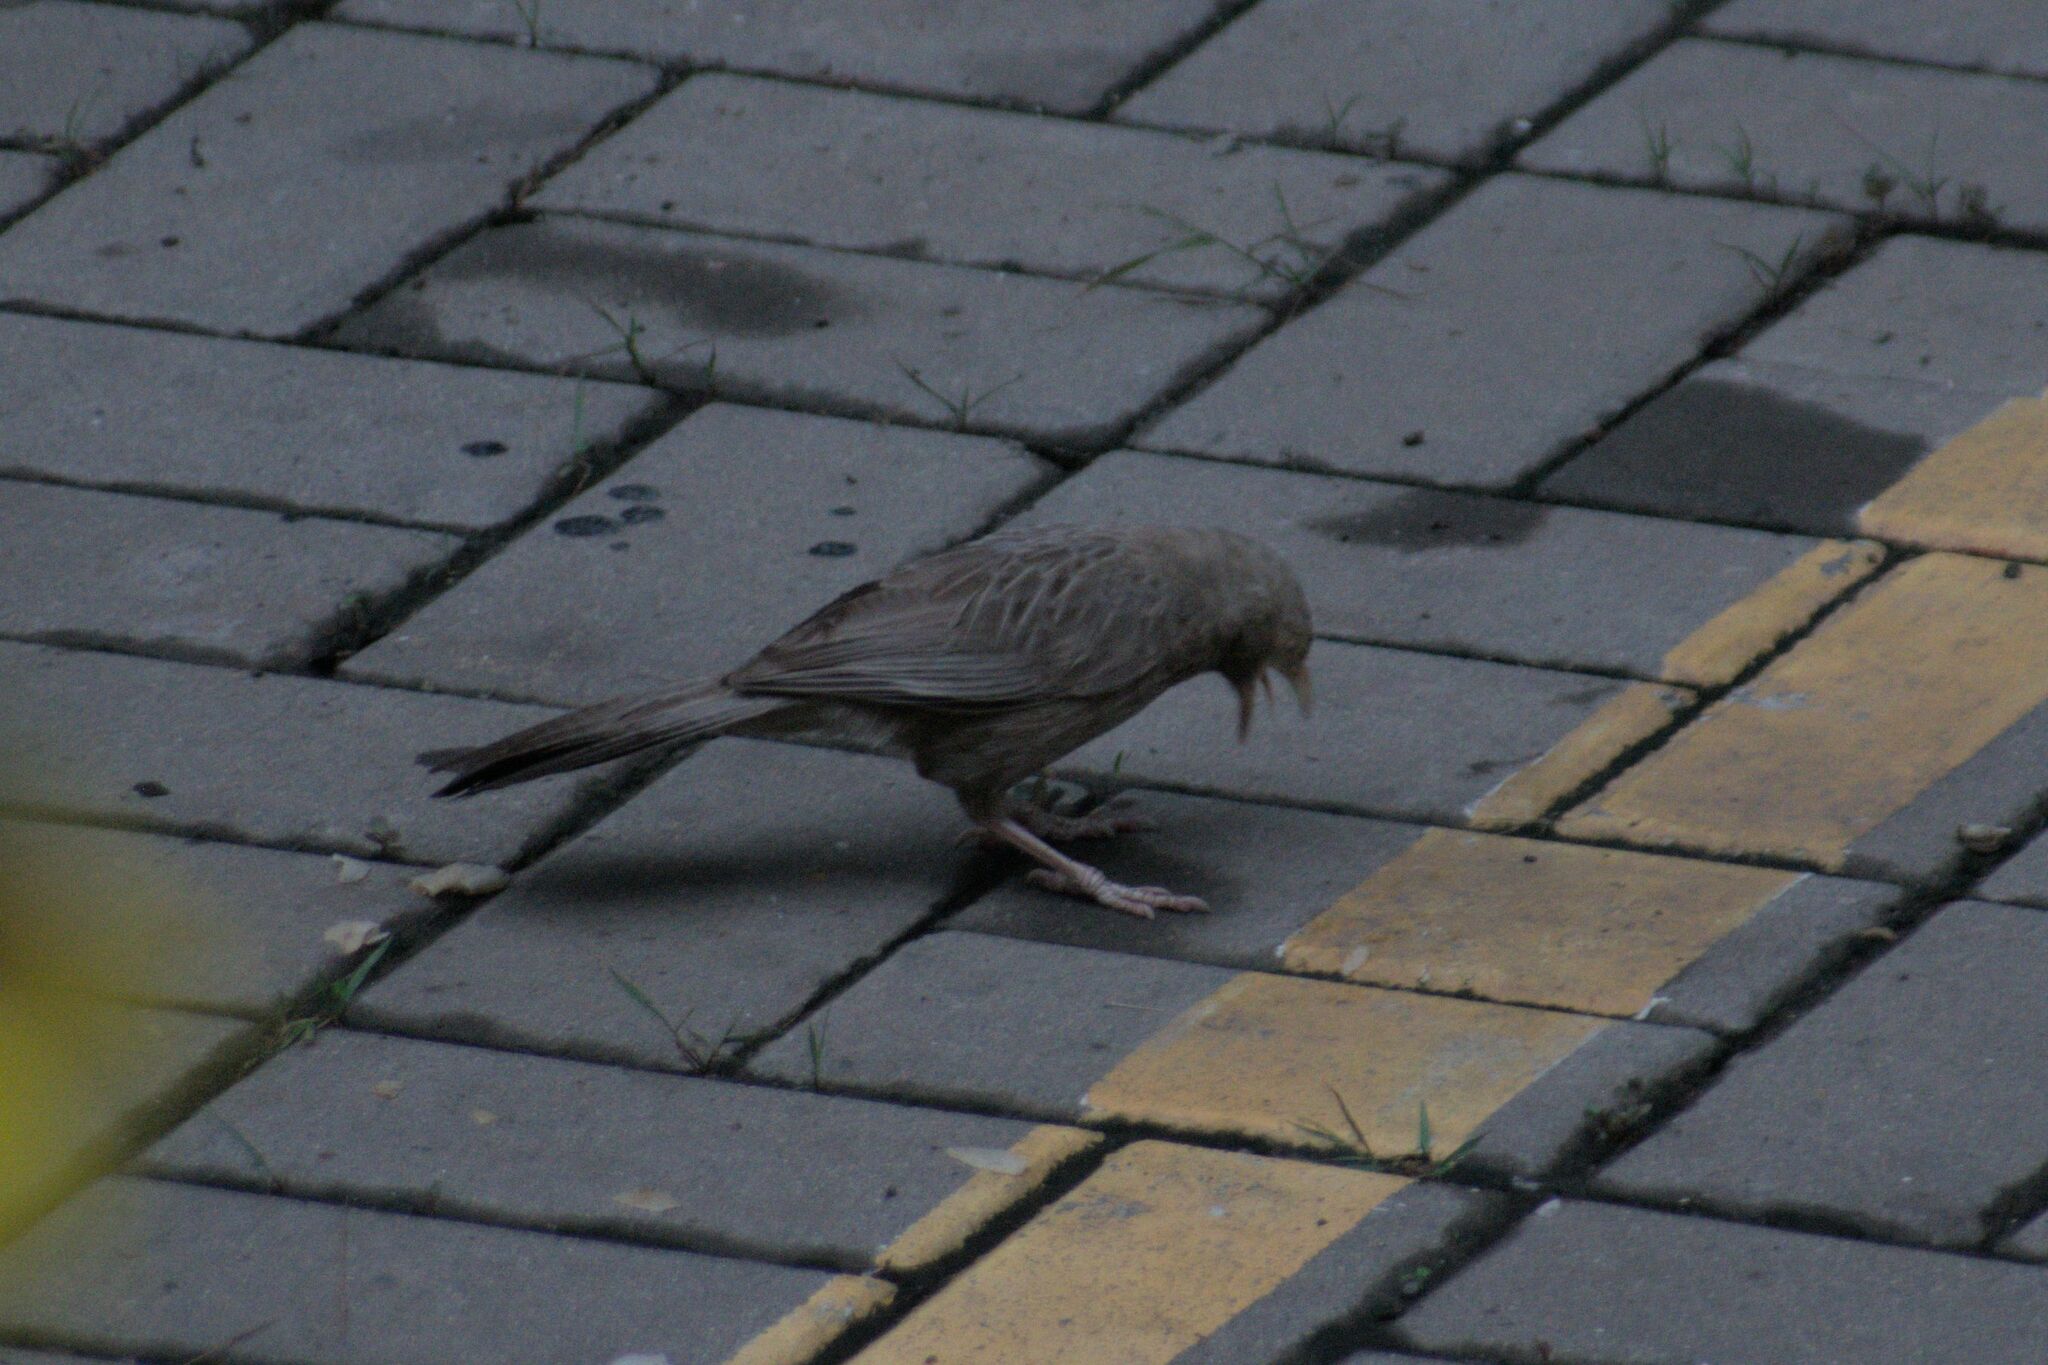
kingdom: Animalia
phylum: Chordata
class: Aves
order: Passeriformes
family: Leiothrichidae
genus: Turdoides
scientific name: Turdoides affinis
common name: Yellow-billed babbler
